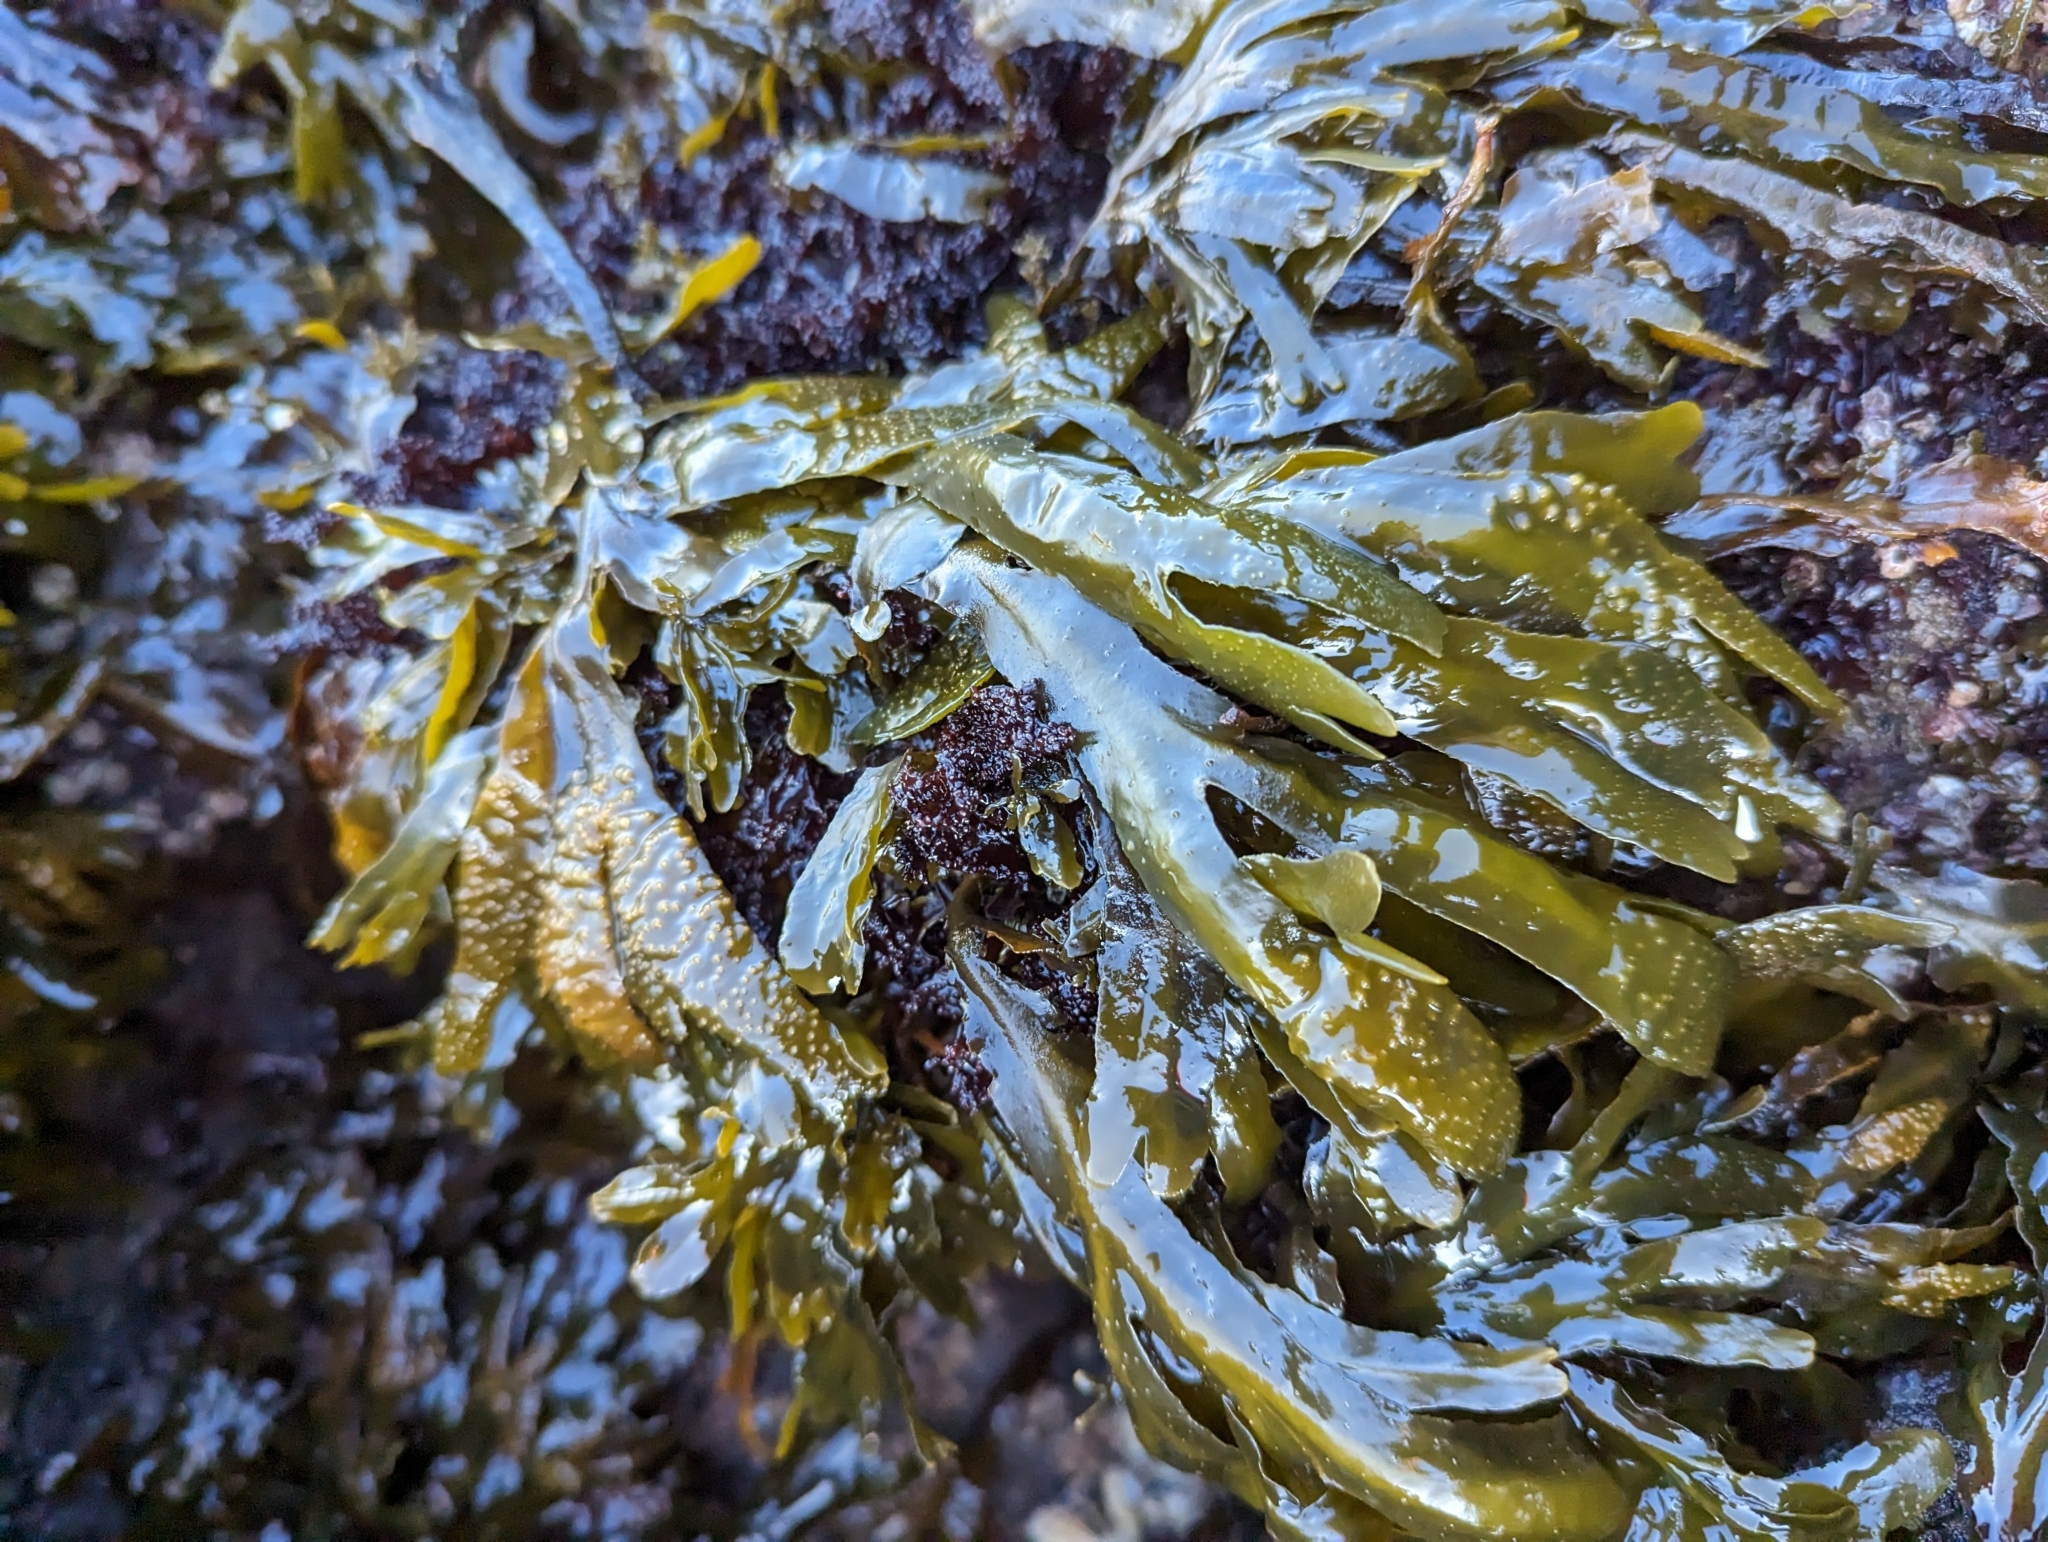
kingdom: Chromista
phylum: Ochrophyta
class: Phaeophyceae
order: Fucales
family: Fucaceae
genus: Fucus
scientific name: Fucus distichus
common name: Rockweed
